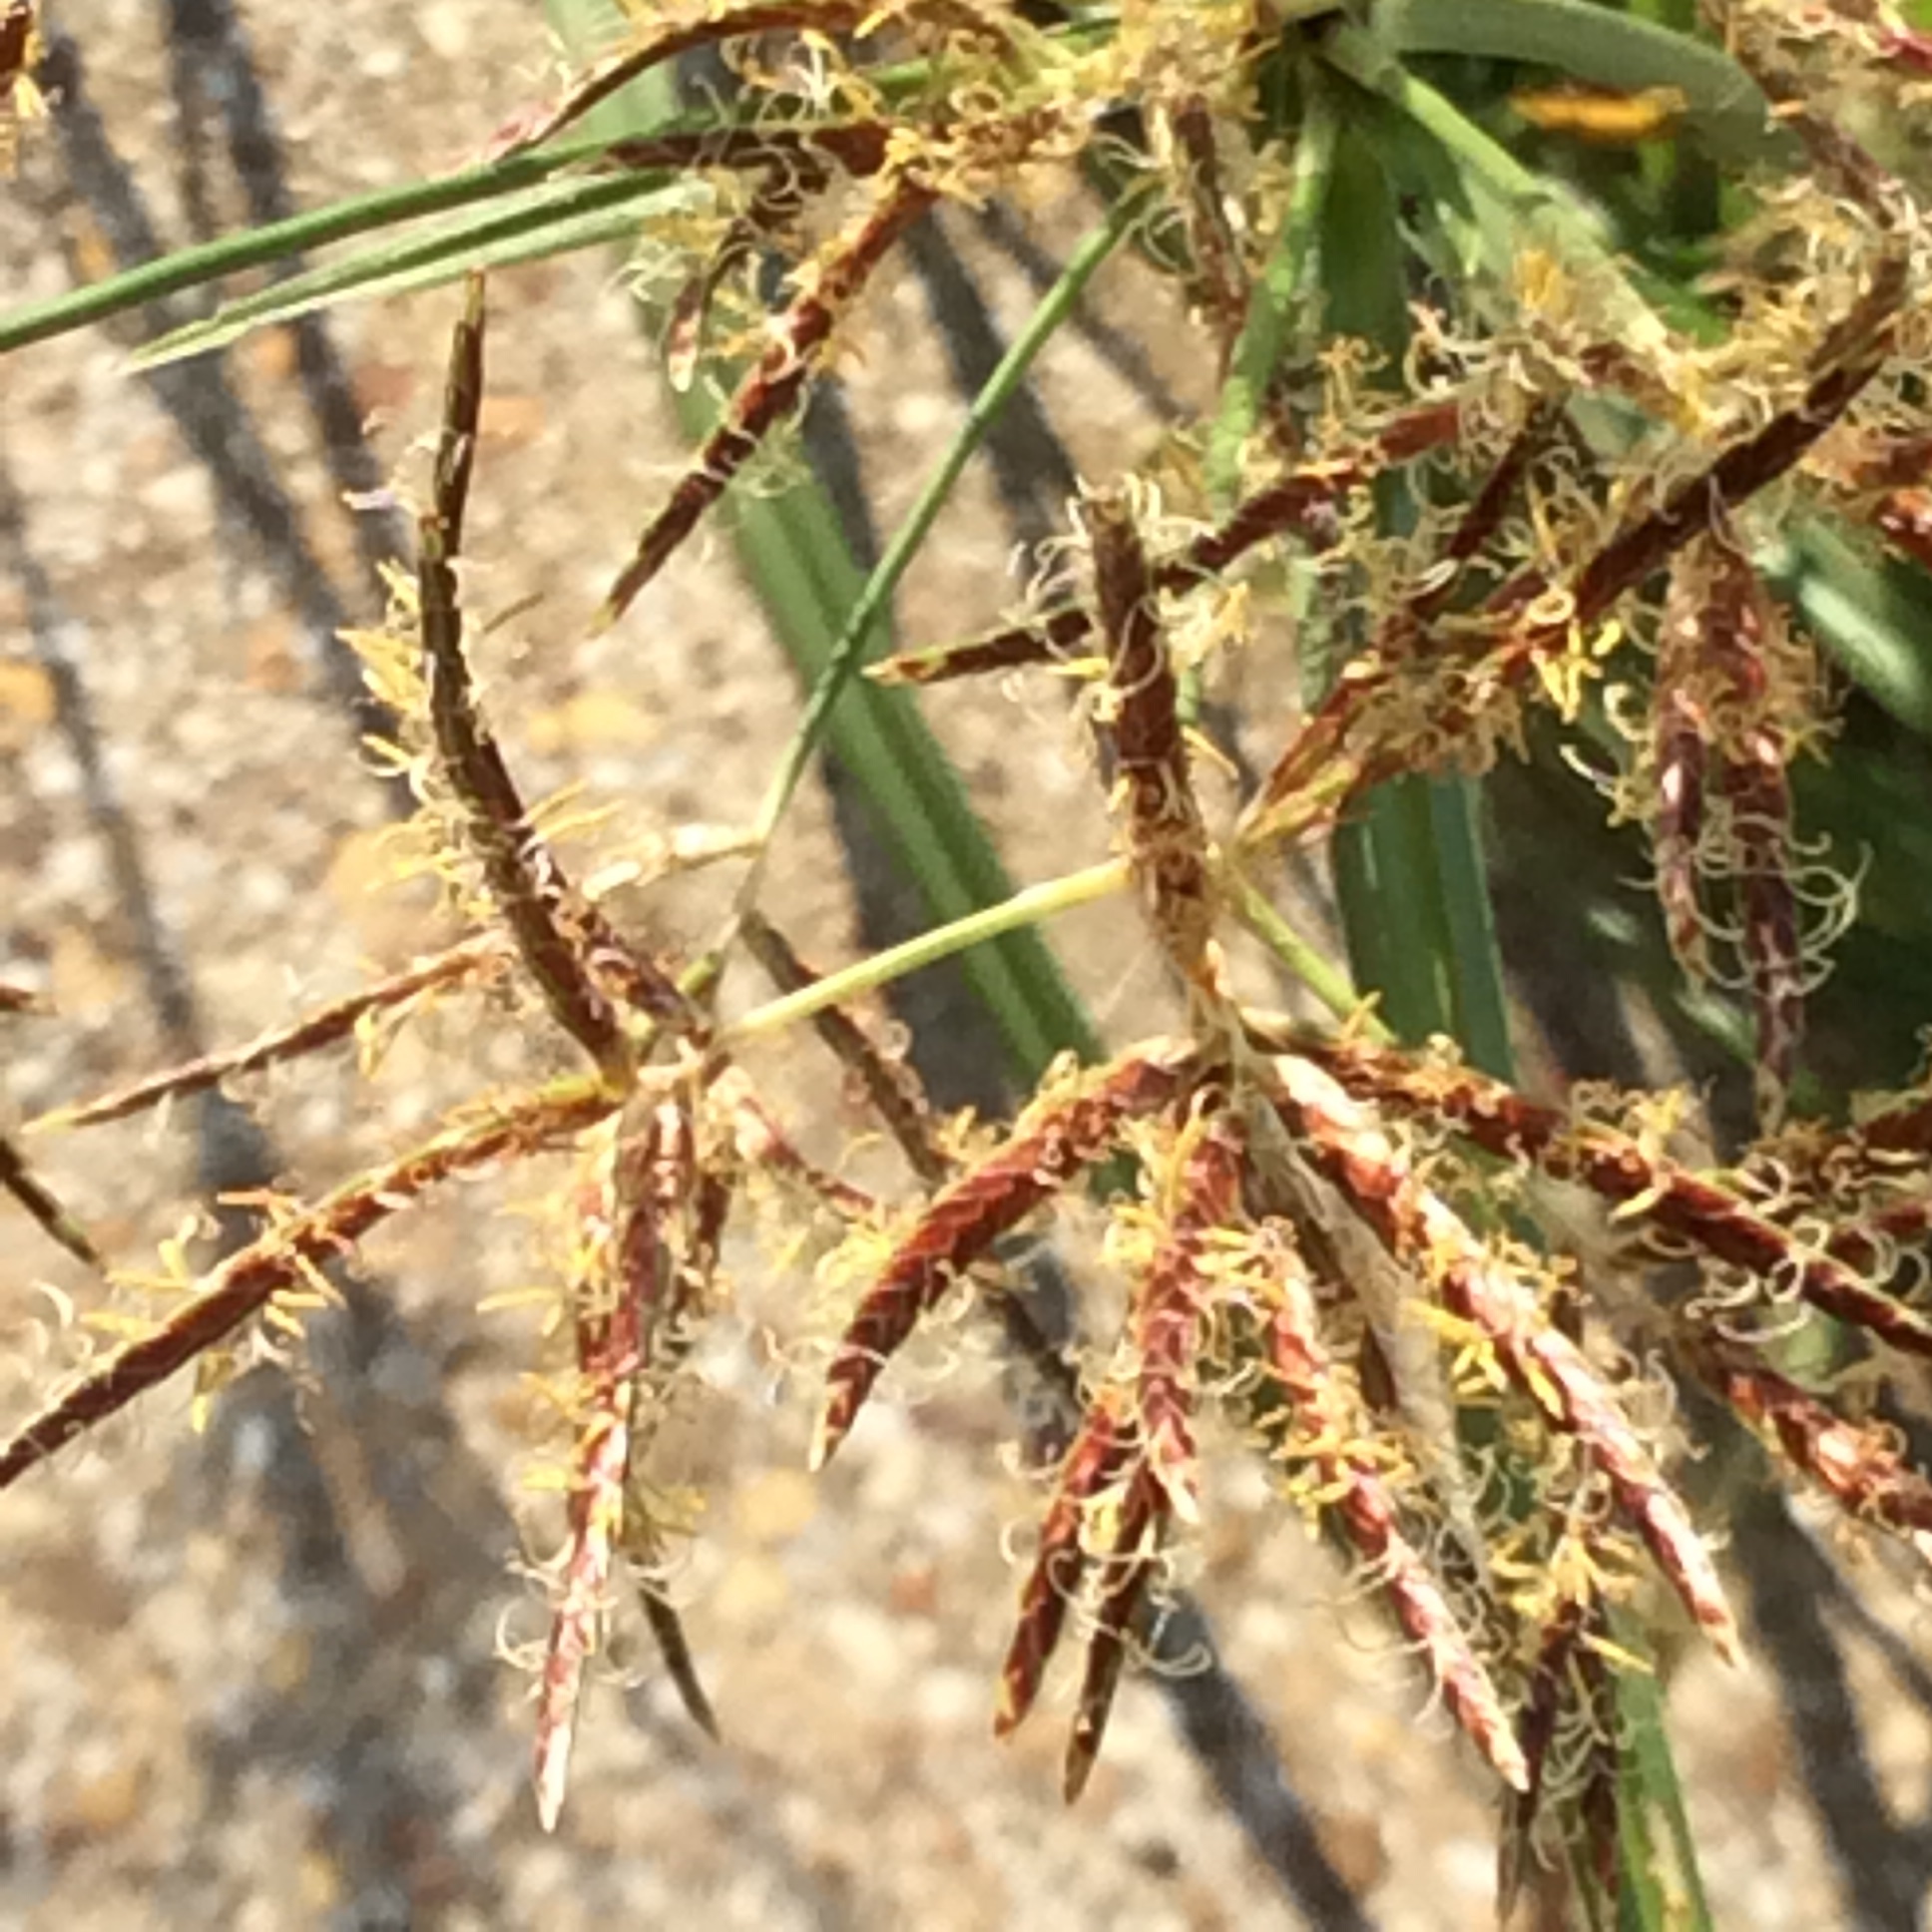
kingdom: Plantae
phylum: Tracheophyta
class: Liliopsida
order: Poales
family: Cyperaceae
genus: Cyperus
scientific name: Cyperus rotundus
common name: Nutgrass
